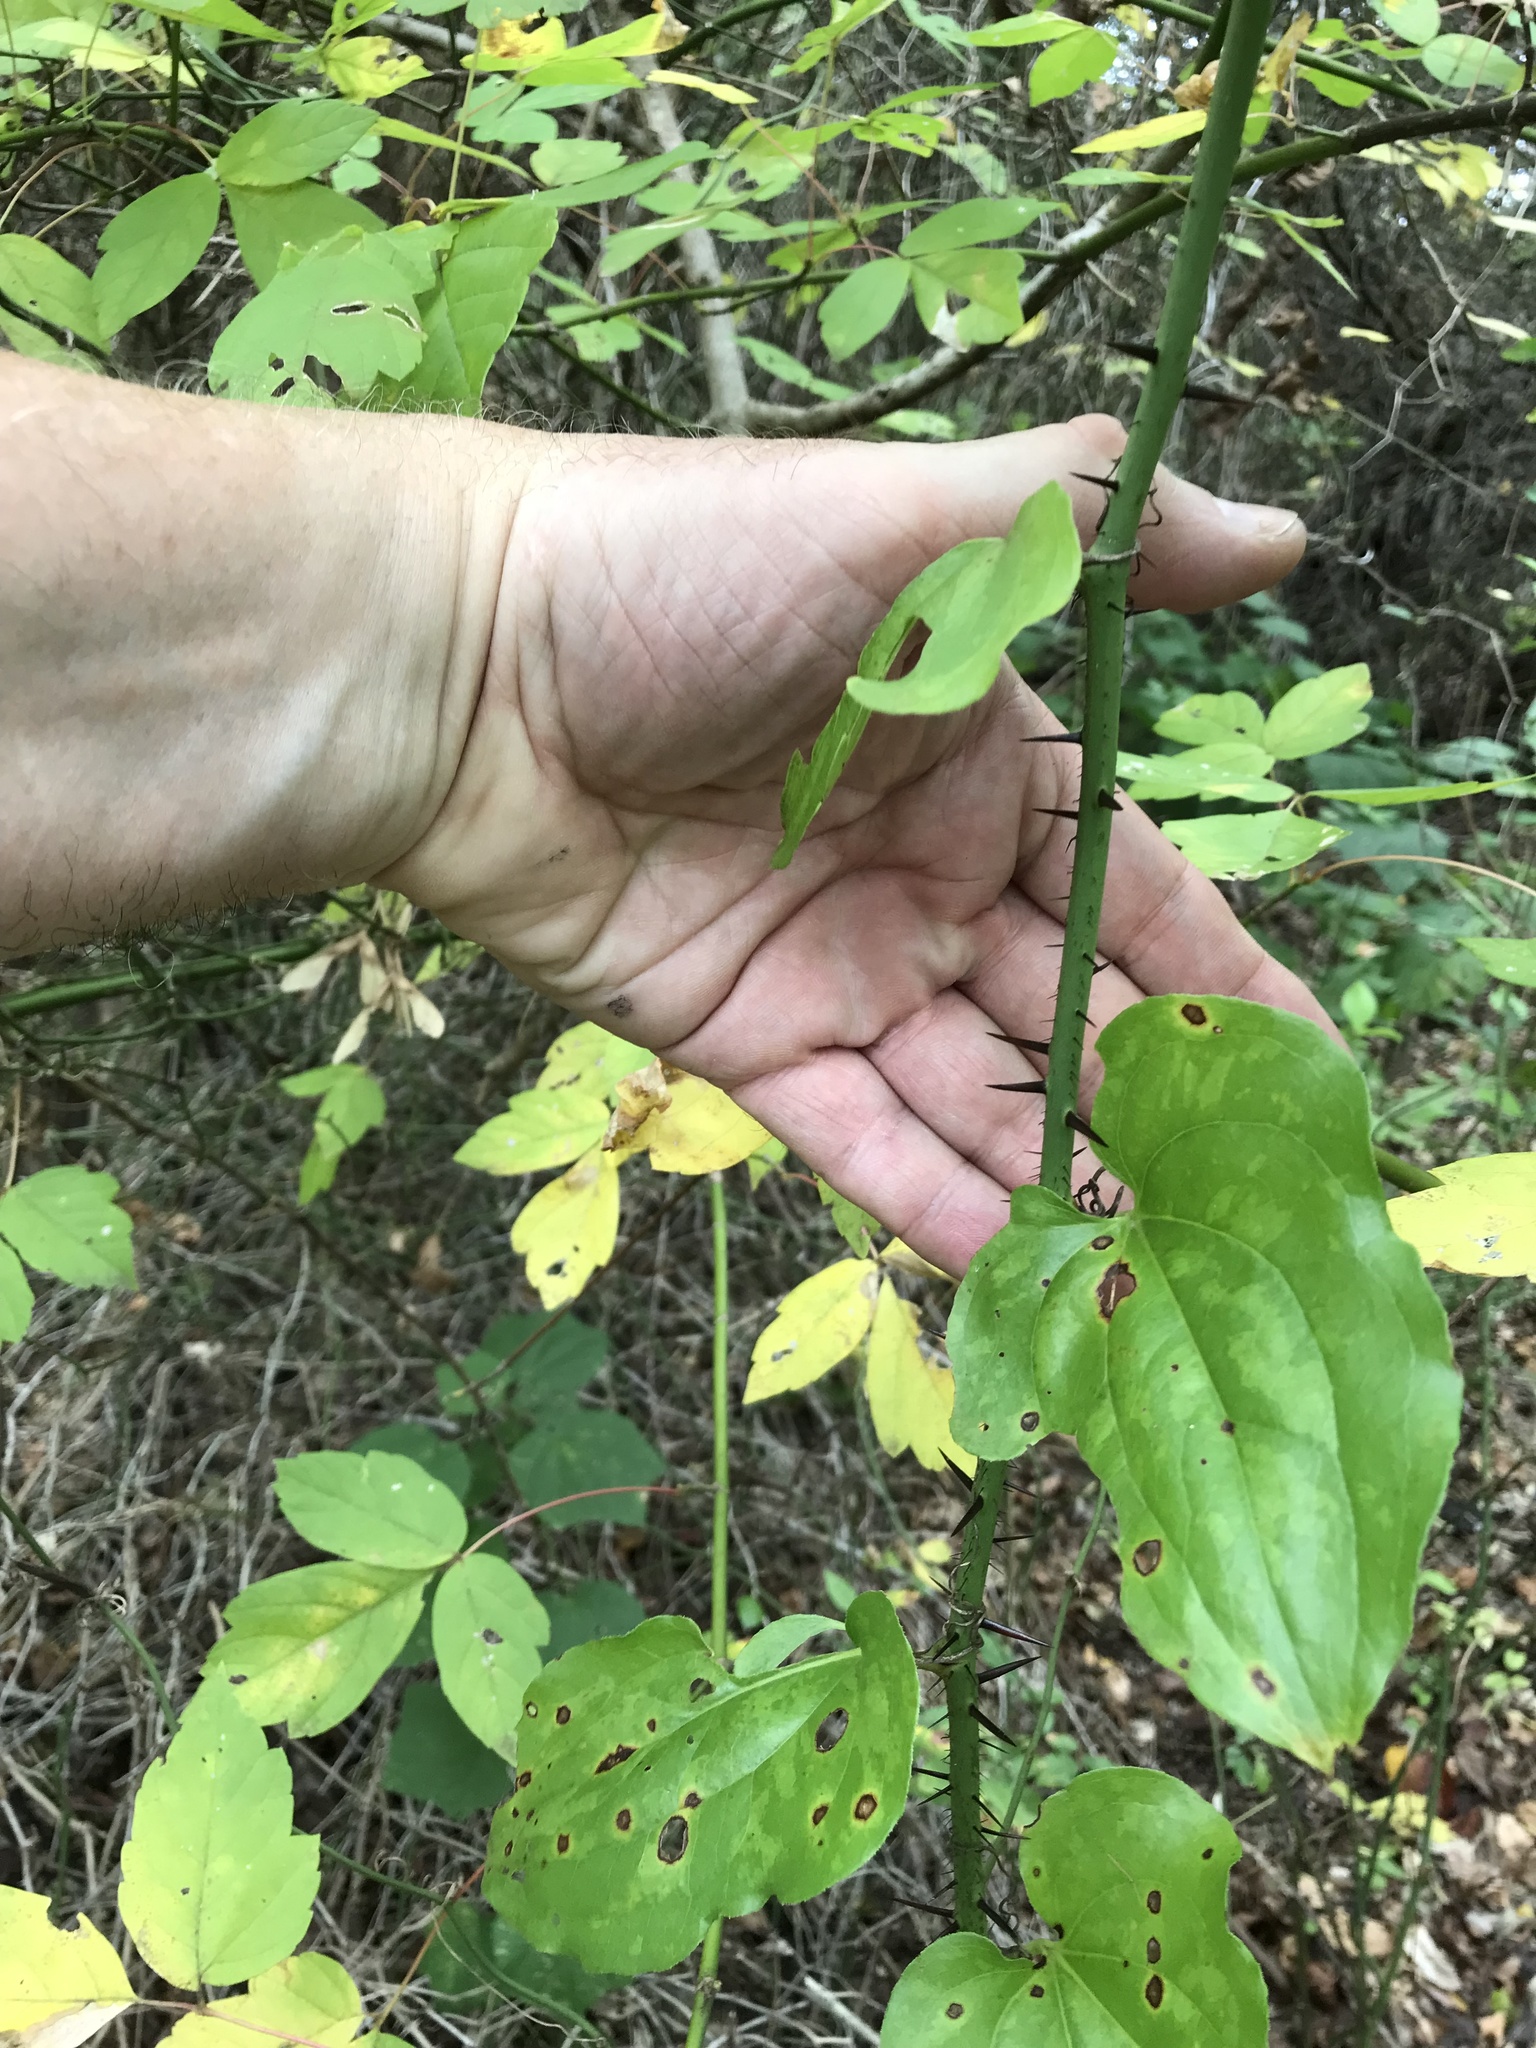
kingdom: Plantae
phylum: Tracheophyta
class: Liliopsida
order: Liliales
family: Smilacaceae
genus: Smilax
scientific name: Smilax tamnoides
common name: Hellfetter
